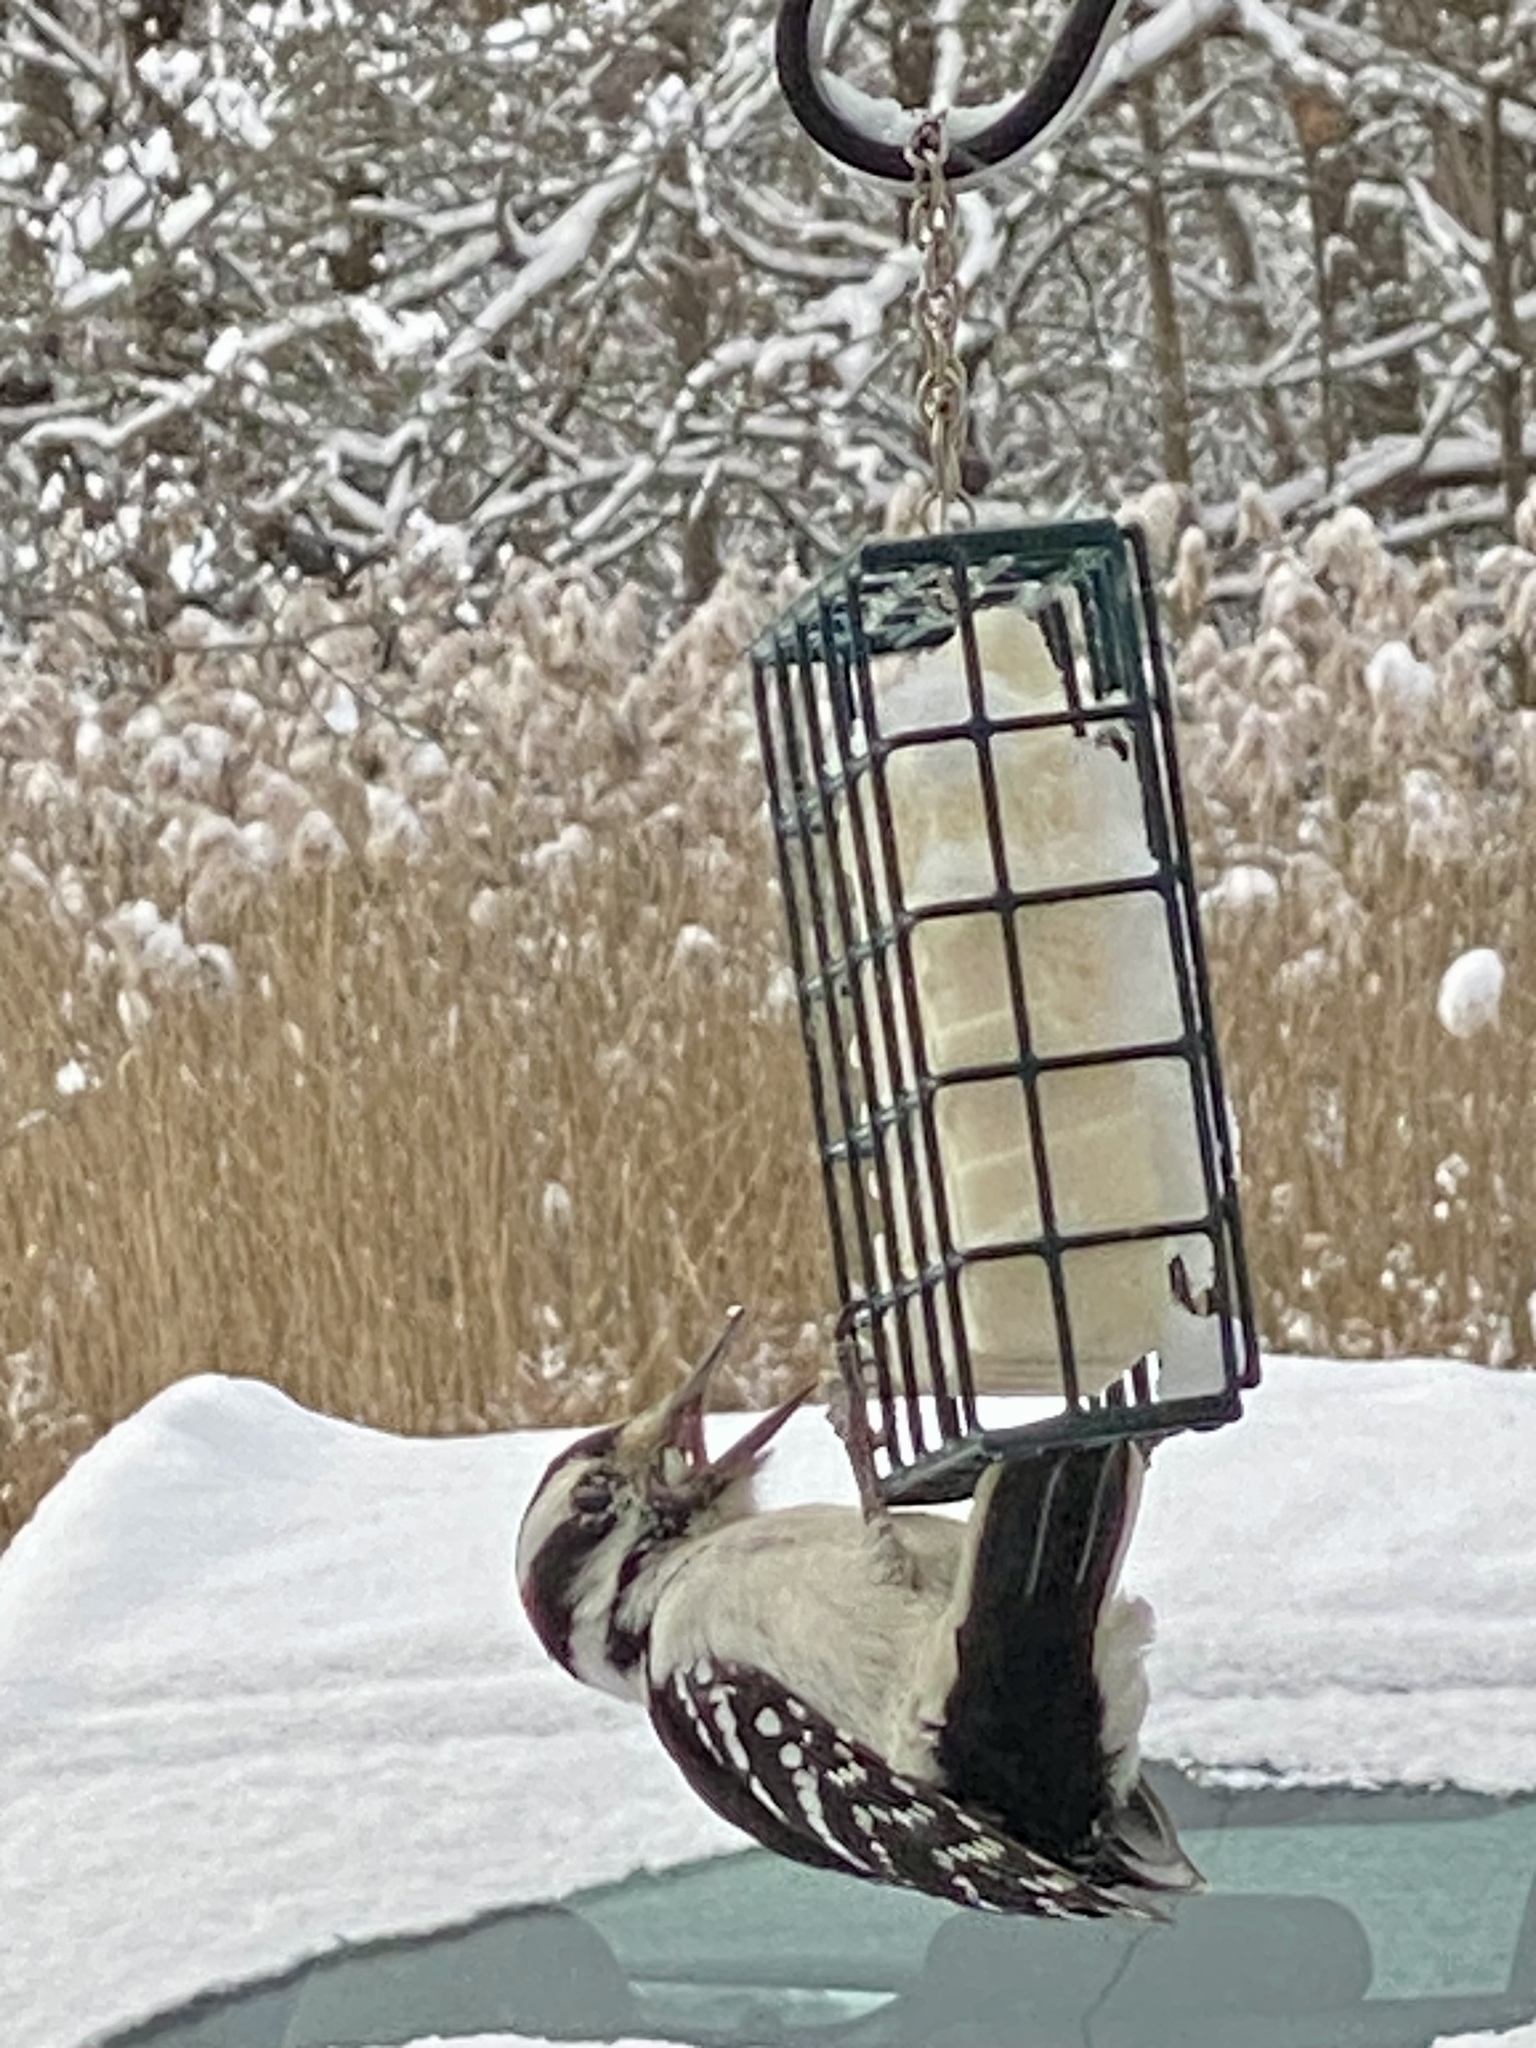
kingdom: Animalia
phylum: Chordata
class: Aves
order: Piciformes
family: Picidae
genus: Leuconotopicus
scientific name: Leuconotopicus villosus
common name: Hairy woodpecker
